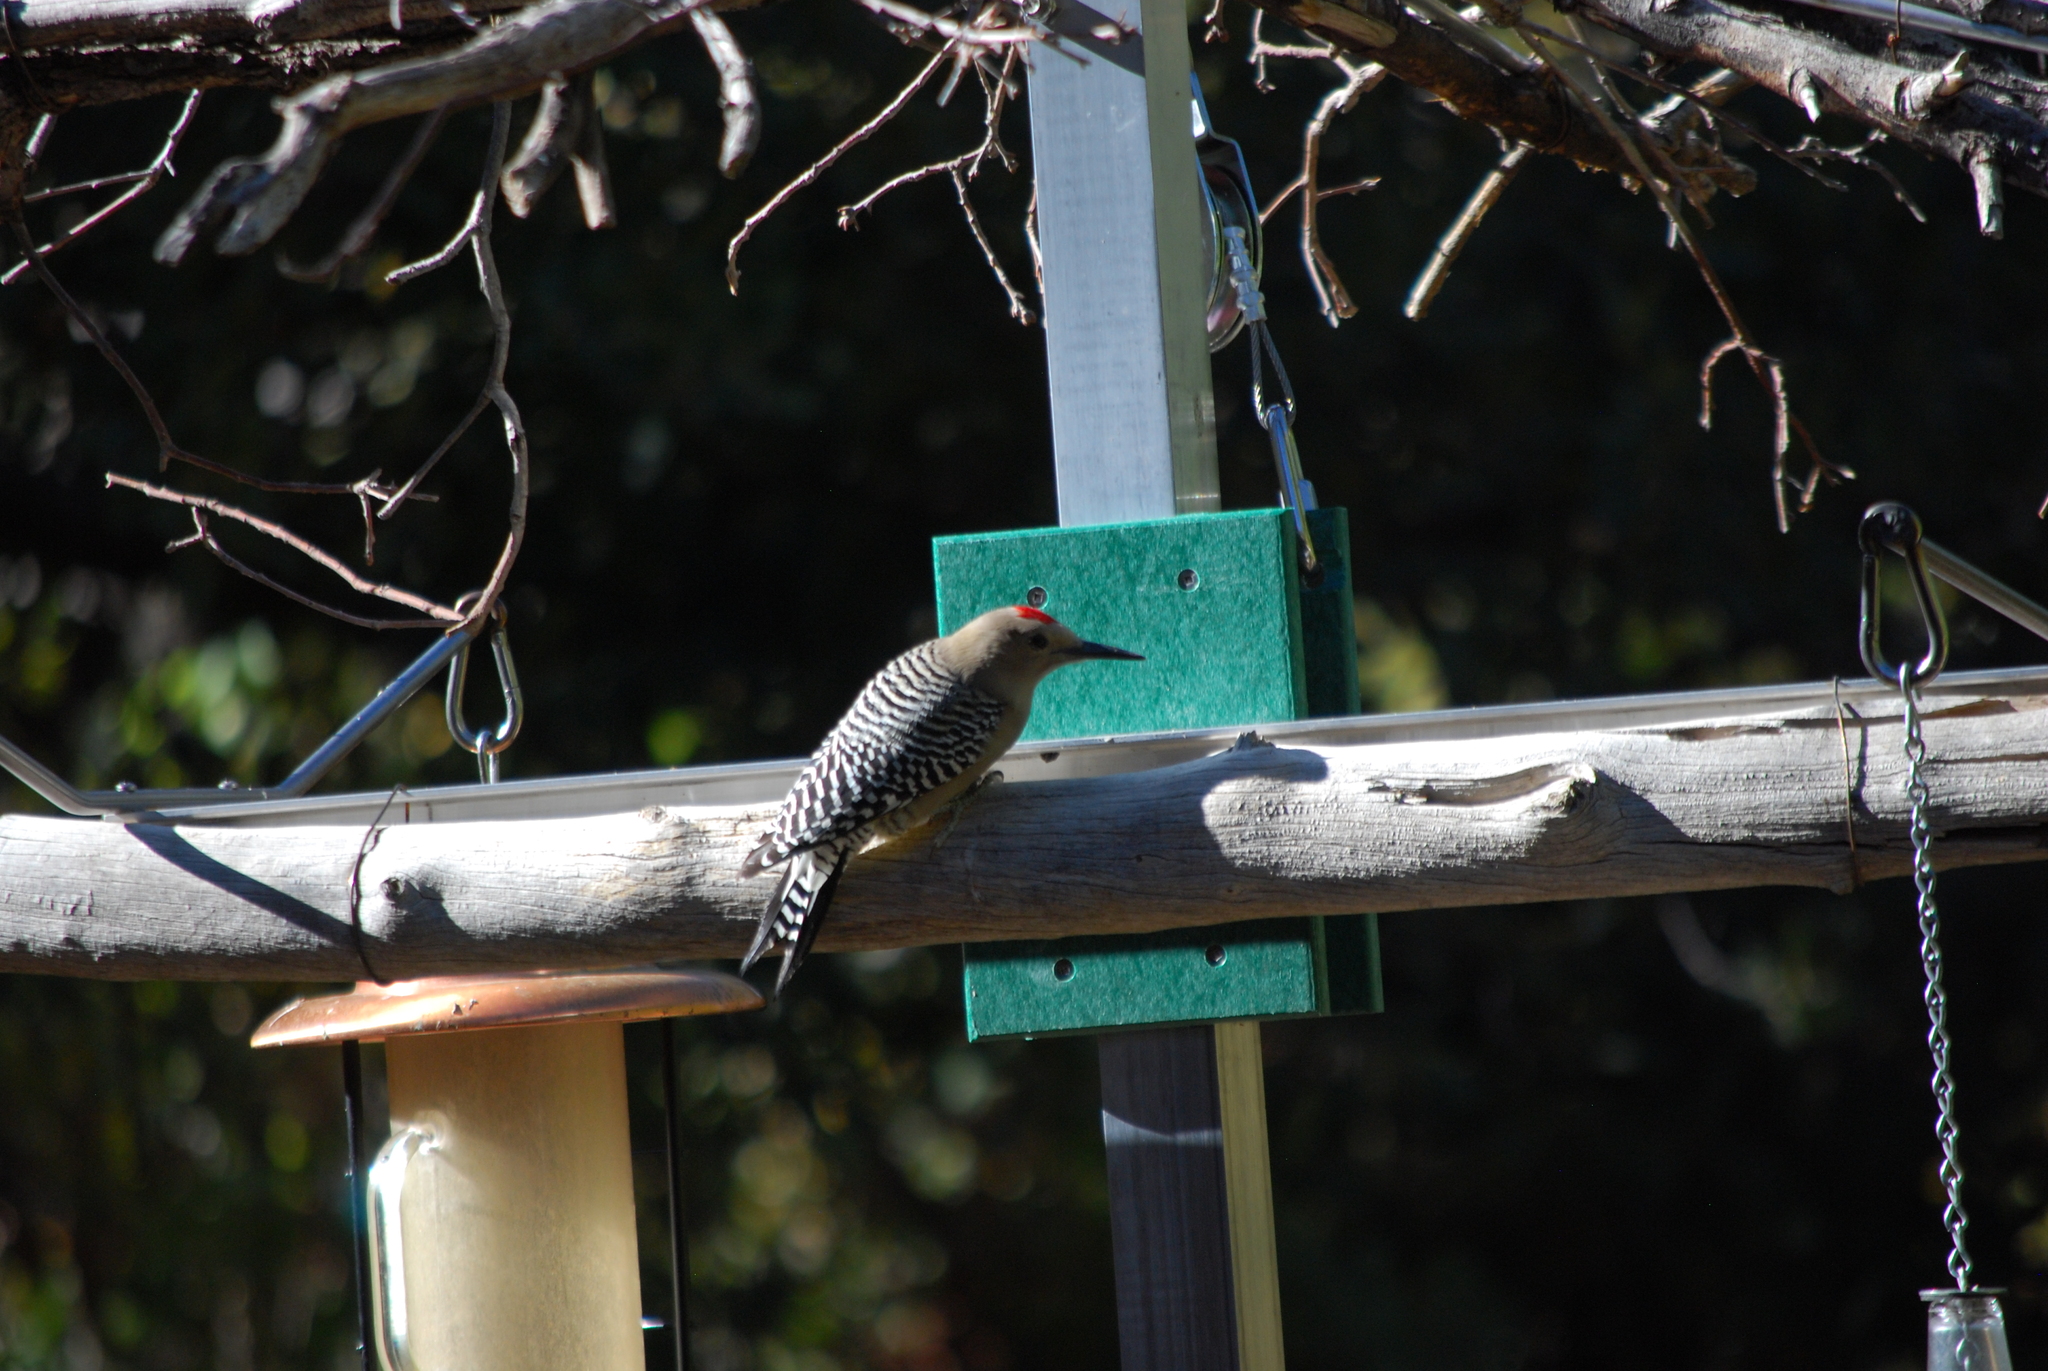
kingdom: Animalia
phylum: Chordata
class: Aves
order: Piciformes
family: Picidae
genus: Melanerpes
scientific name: Melanerpes uropygialis
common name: Gila woodpecker
